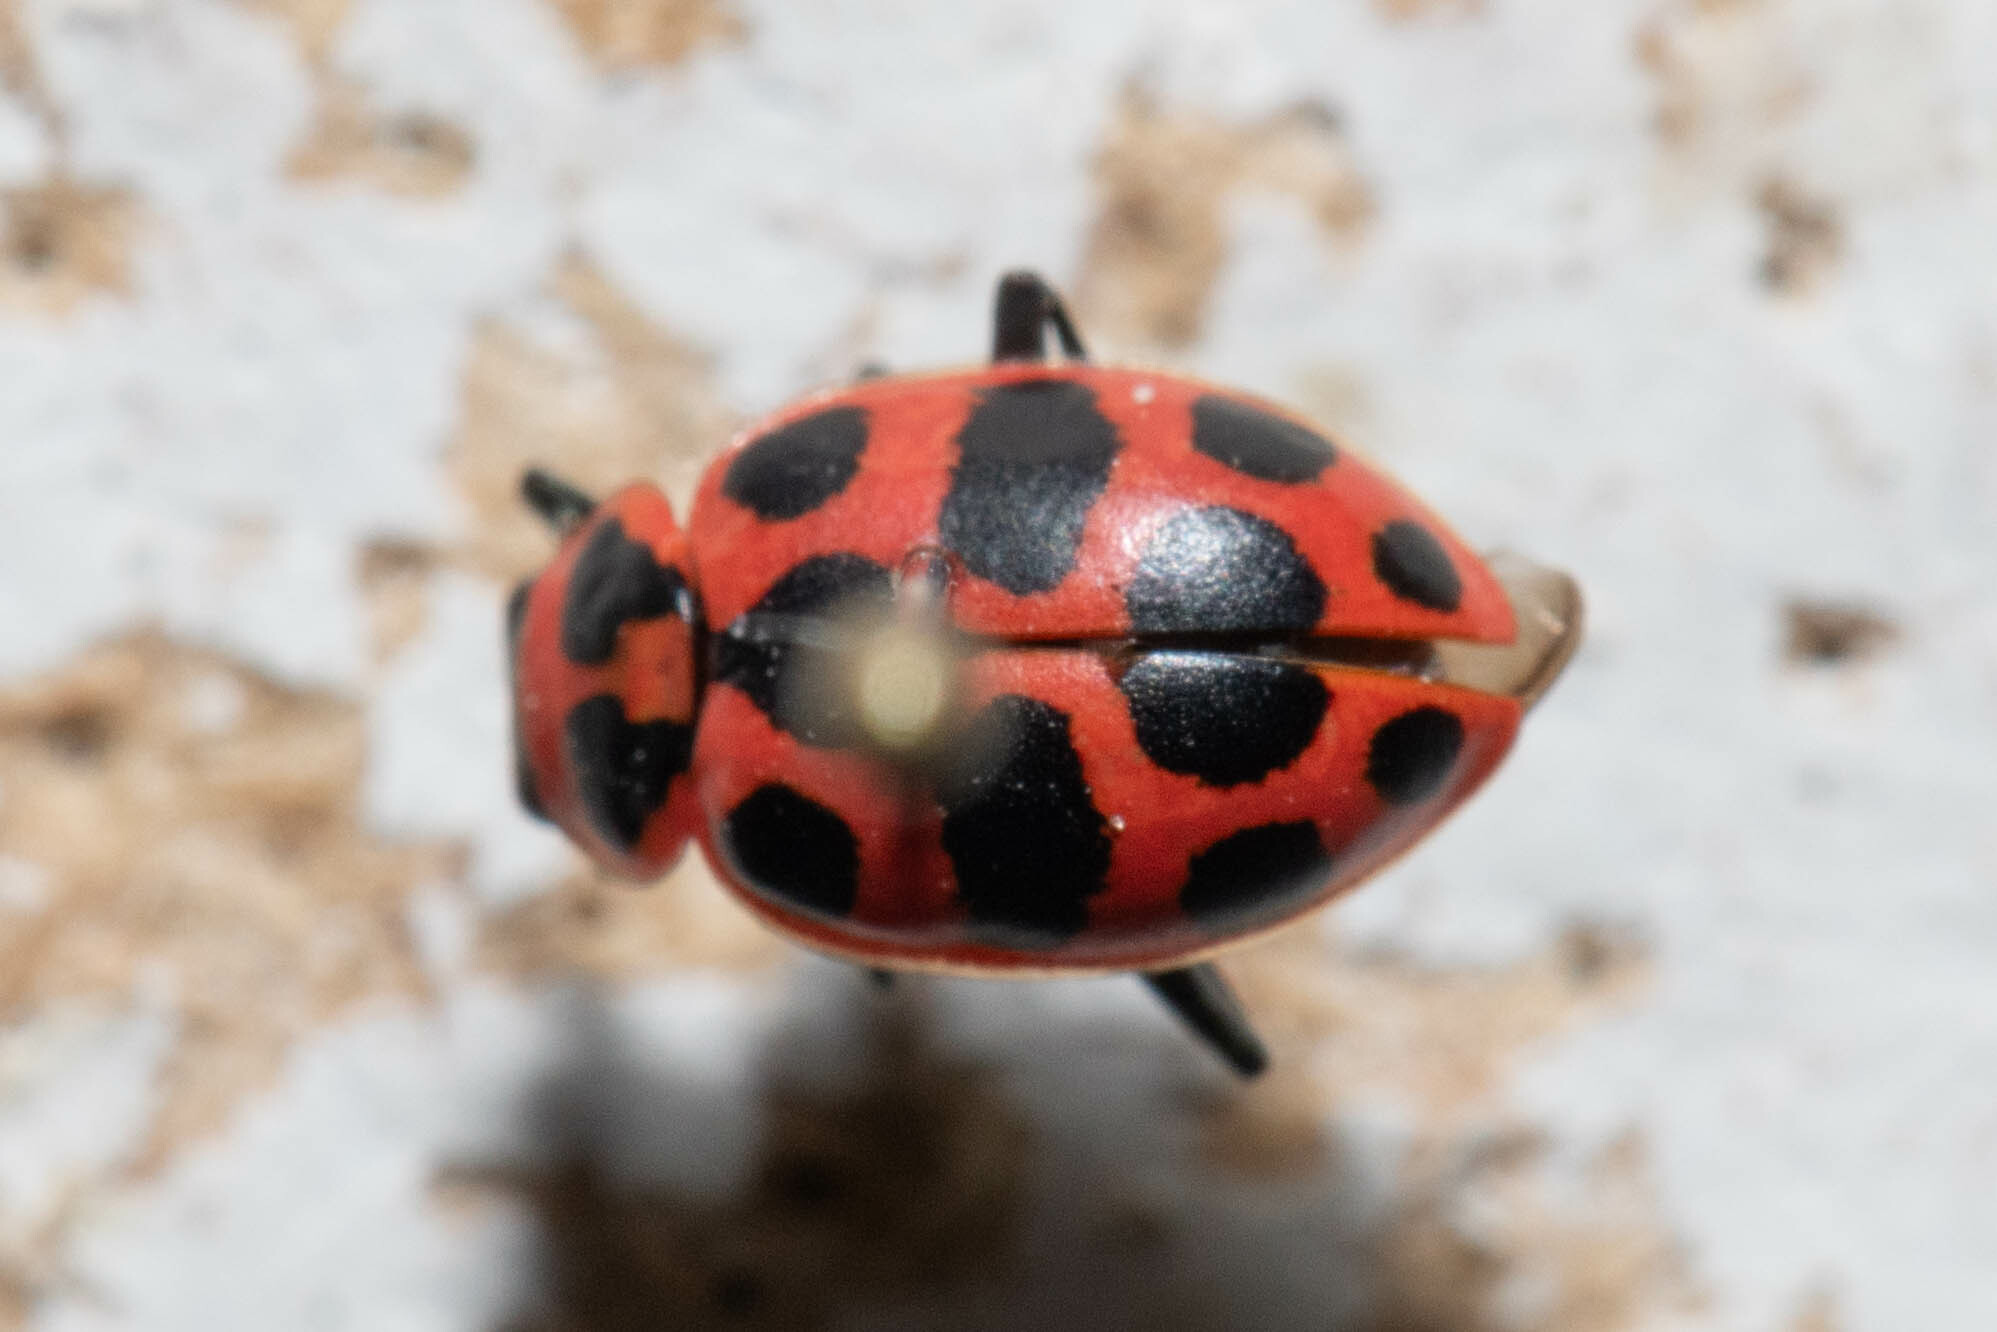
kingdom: Animalia
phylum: Arthropoda
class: Insecta
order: Coleoptera
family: Coccinellidae
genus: Coleomegilla
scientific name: Coleomegilla maculata
